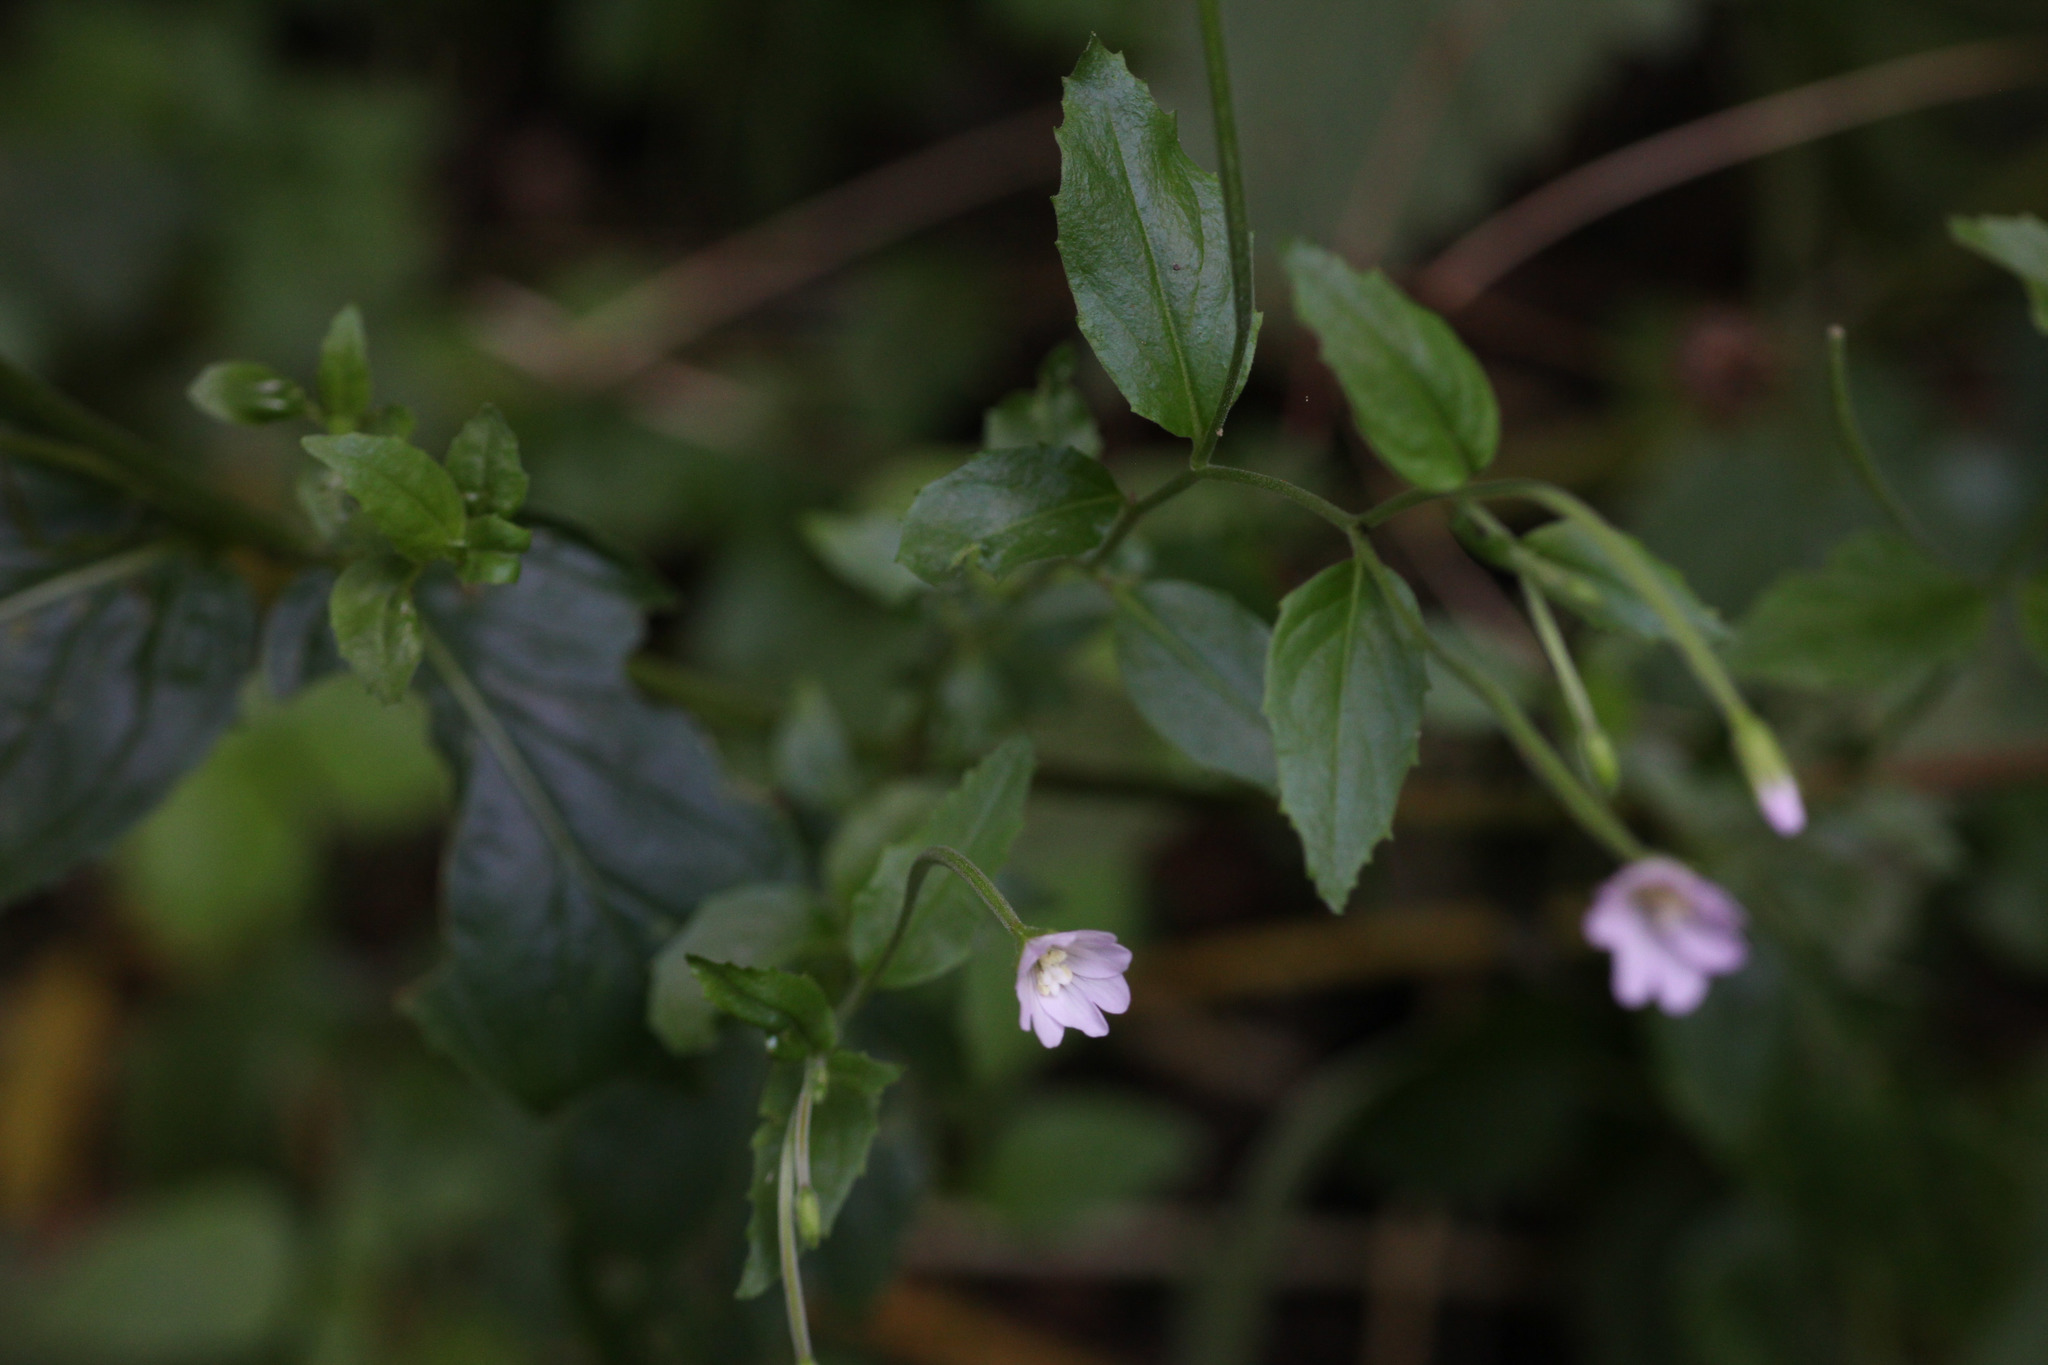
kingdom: Plantae
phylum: Tracheophyta
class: Magnoliopsida
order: Myrtales
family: Onagraceae
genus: Epilobium
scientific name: Epilobium montanum
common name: Broad-leaved willowherb
